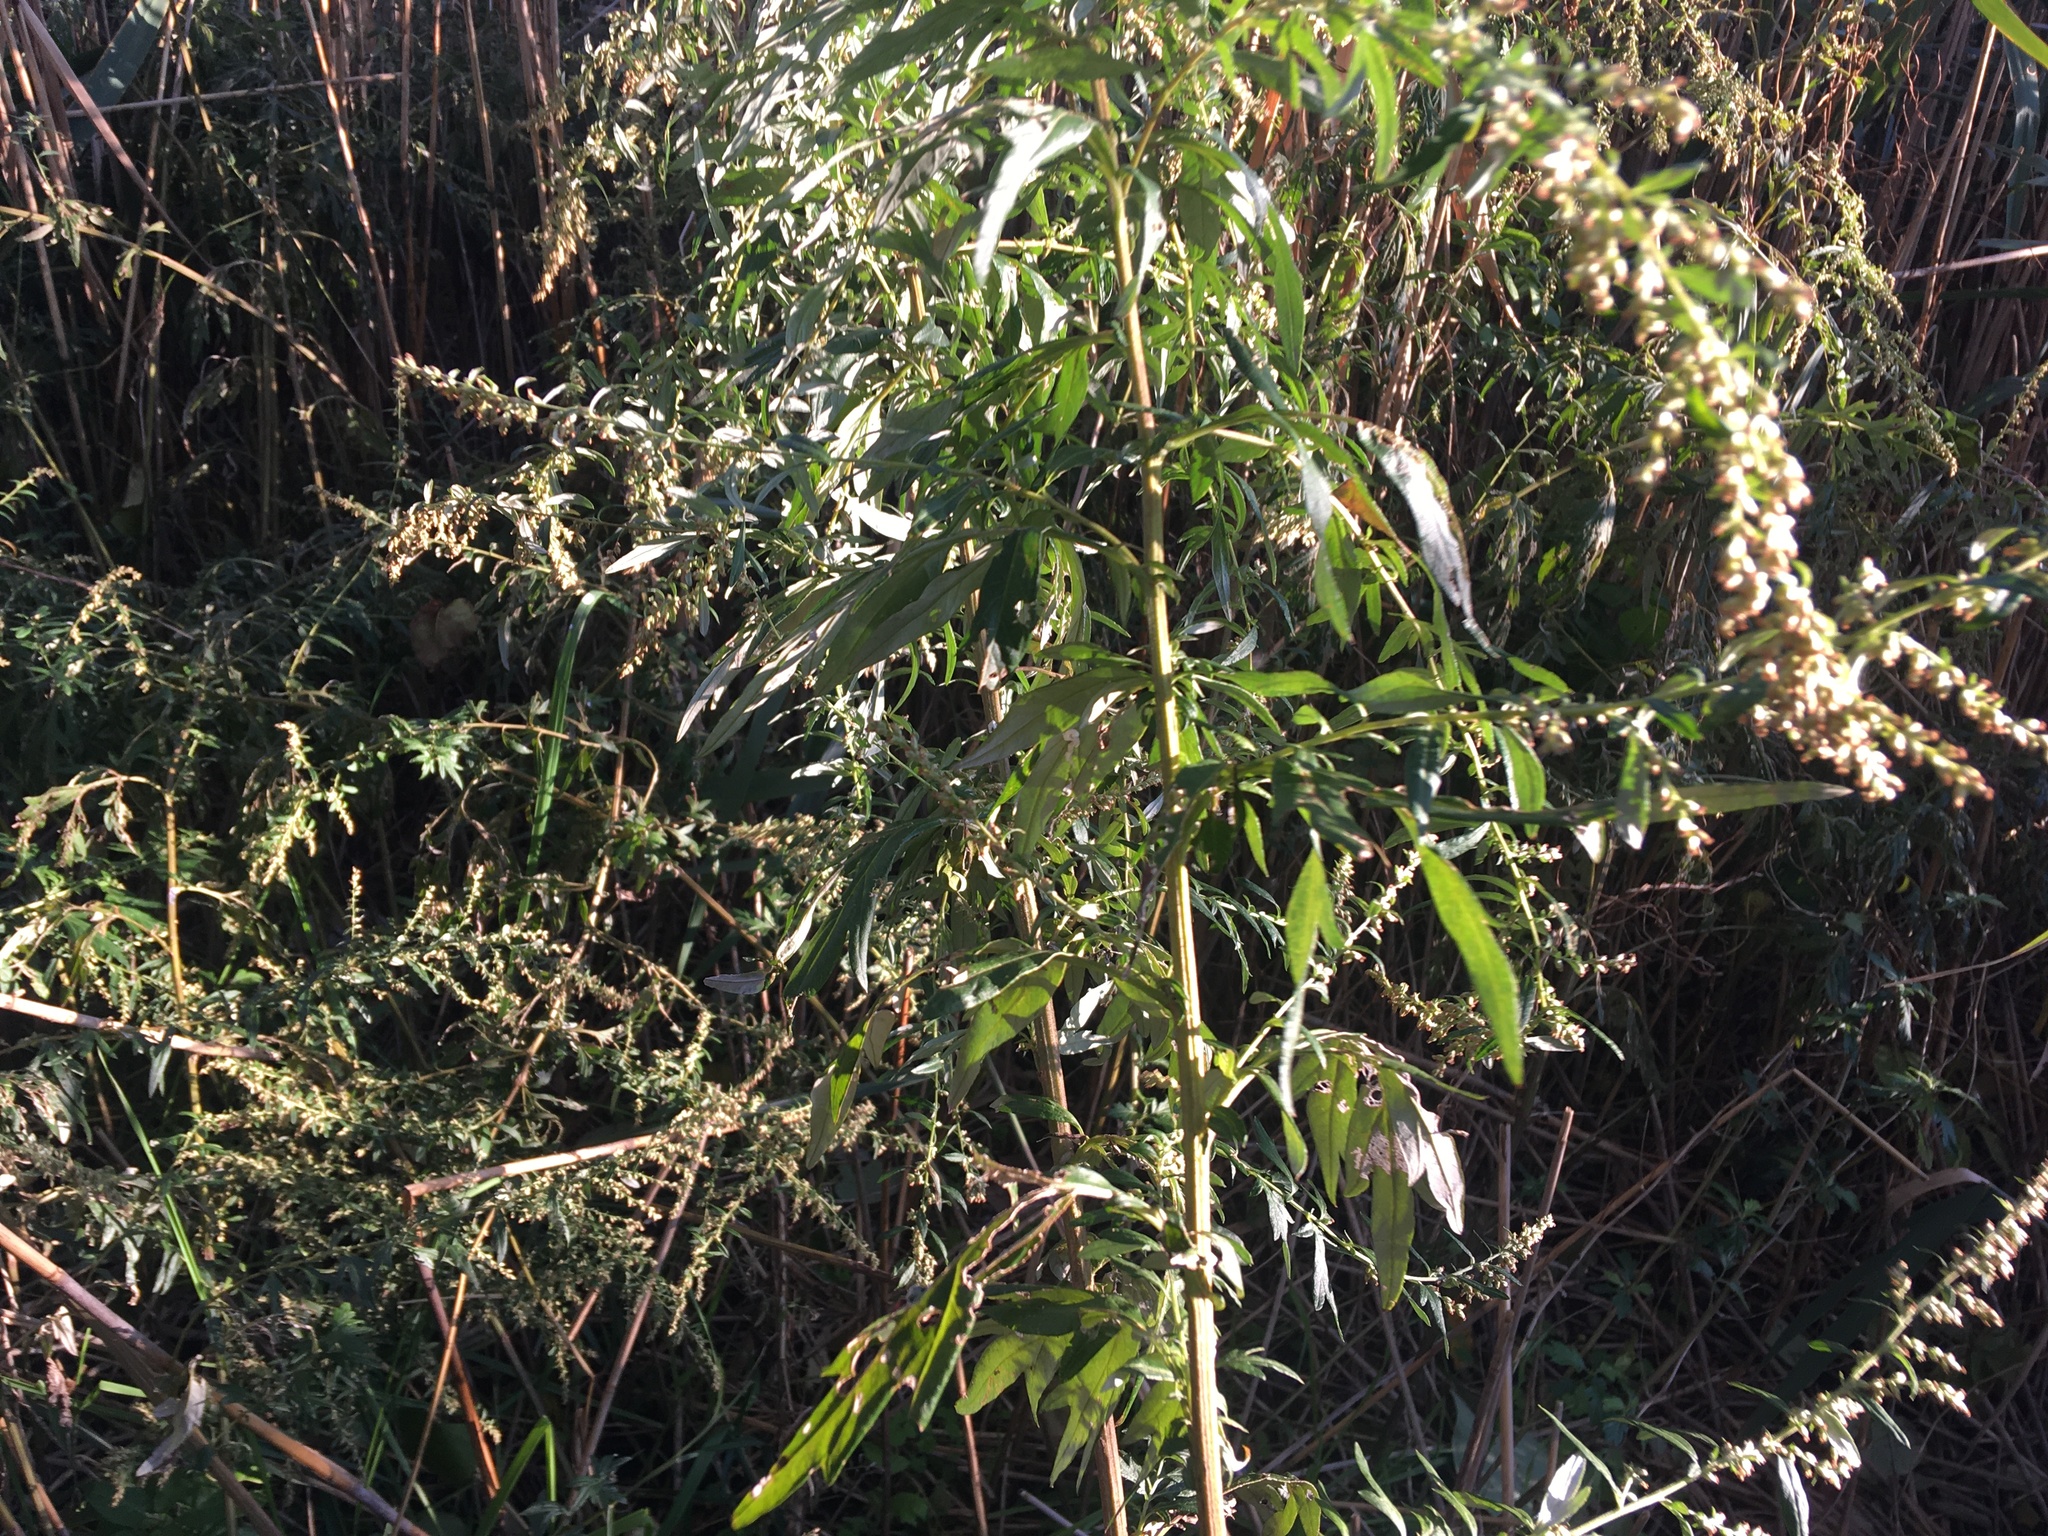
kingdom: Plantae
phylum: Tracheophyta
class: Magnoliopsida
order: Asterales
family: Asteraceae
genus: Artemisia
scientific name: Artemisia vulgaris
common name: Mugwort
